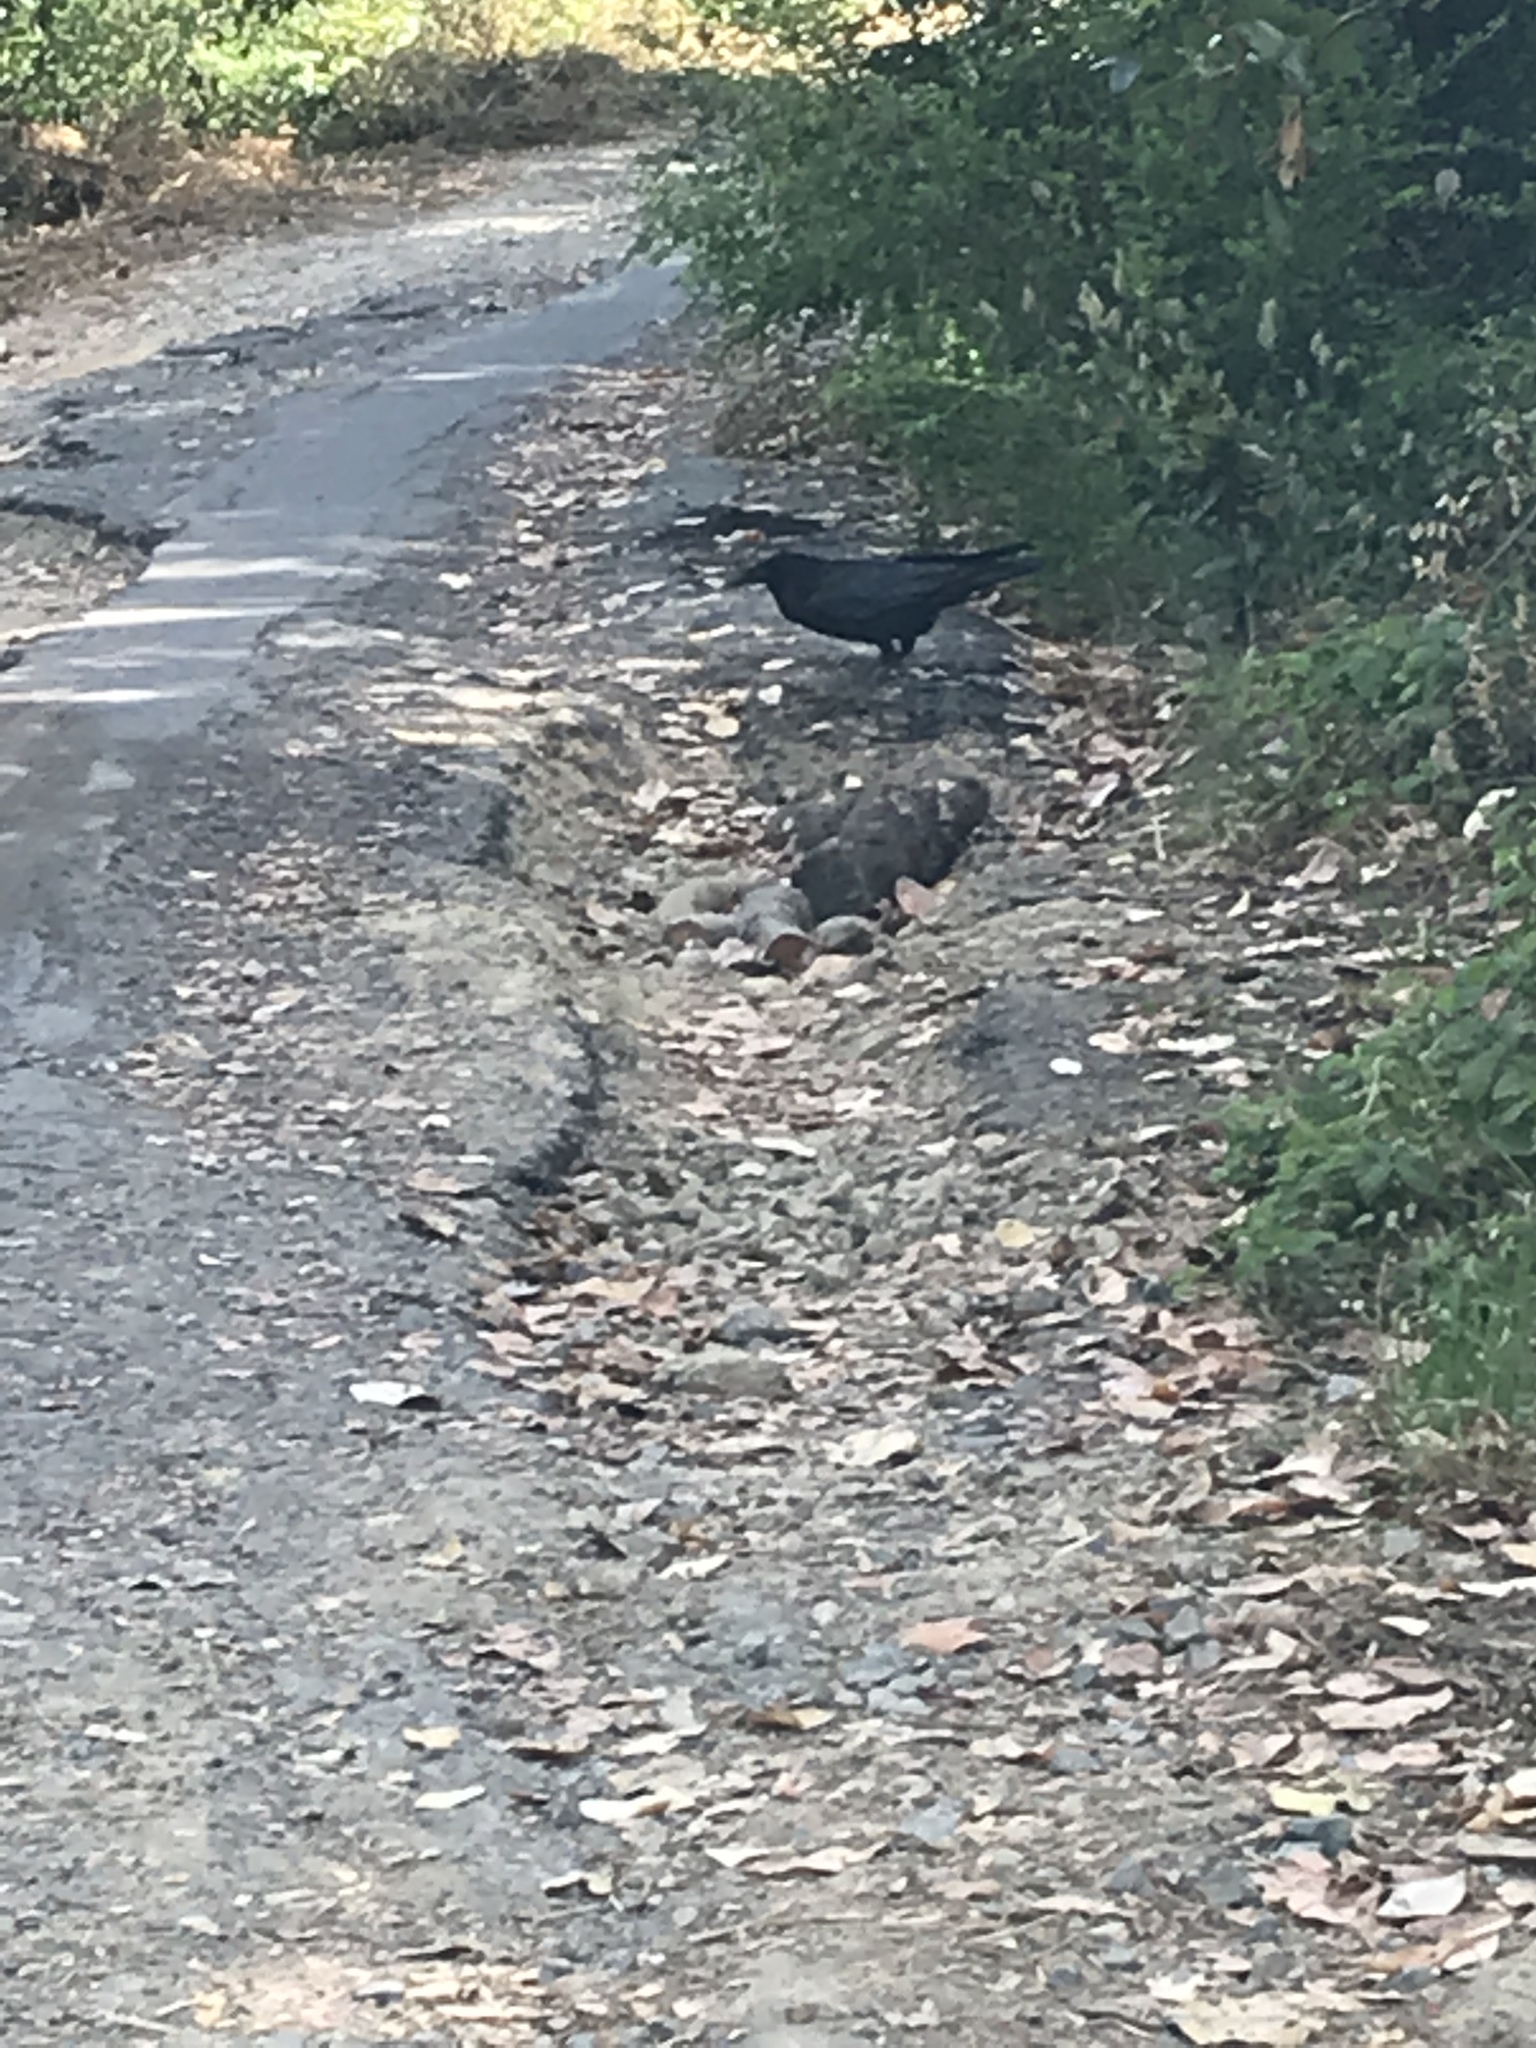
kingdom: Animalia
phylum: Chordata
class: Aves
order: Passeriformes
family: Corvidae
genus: Corvus
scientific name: Corvus corax
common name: Common raven
